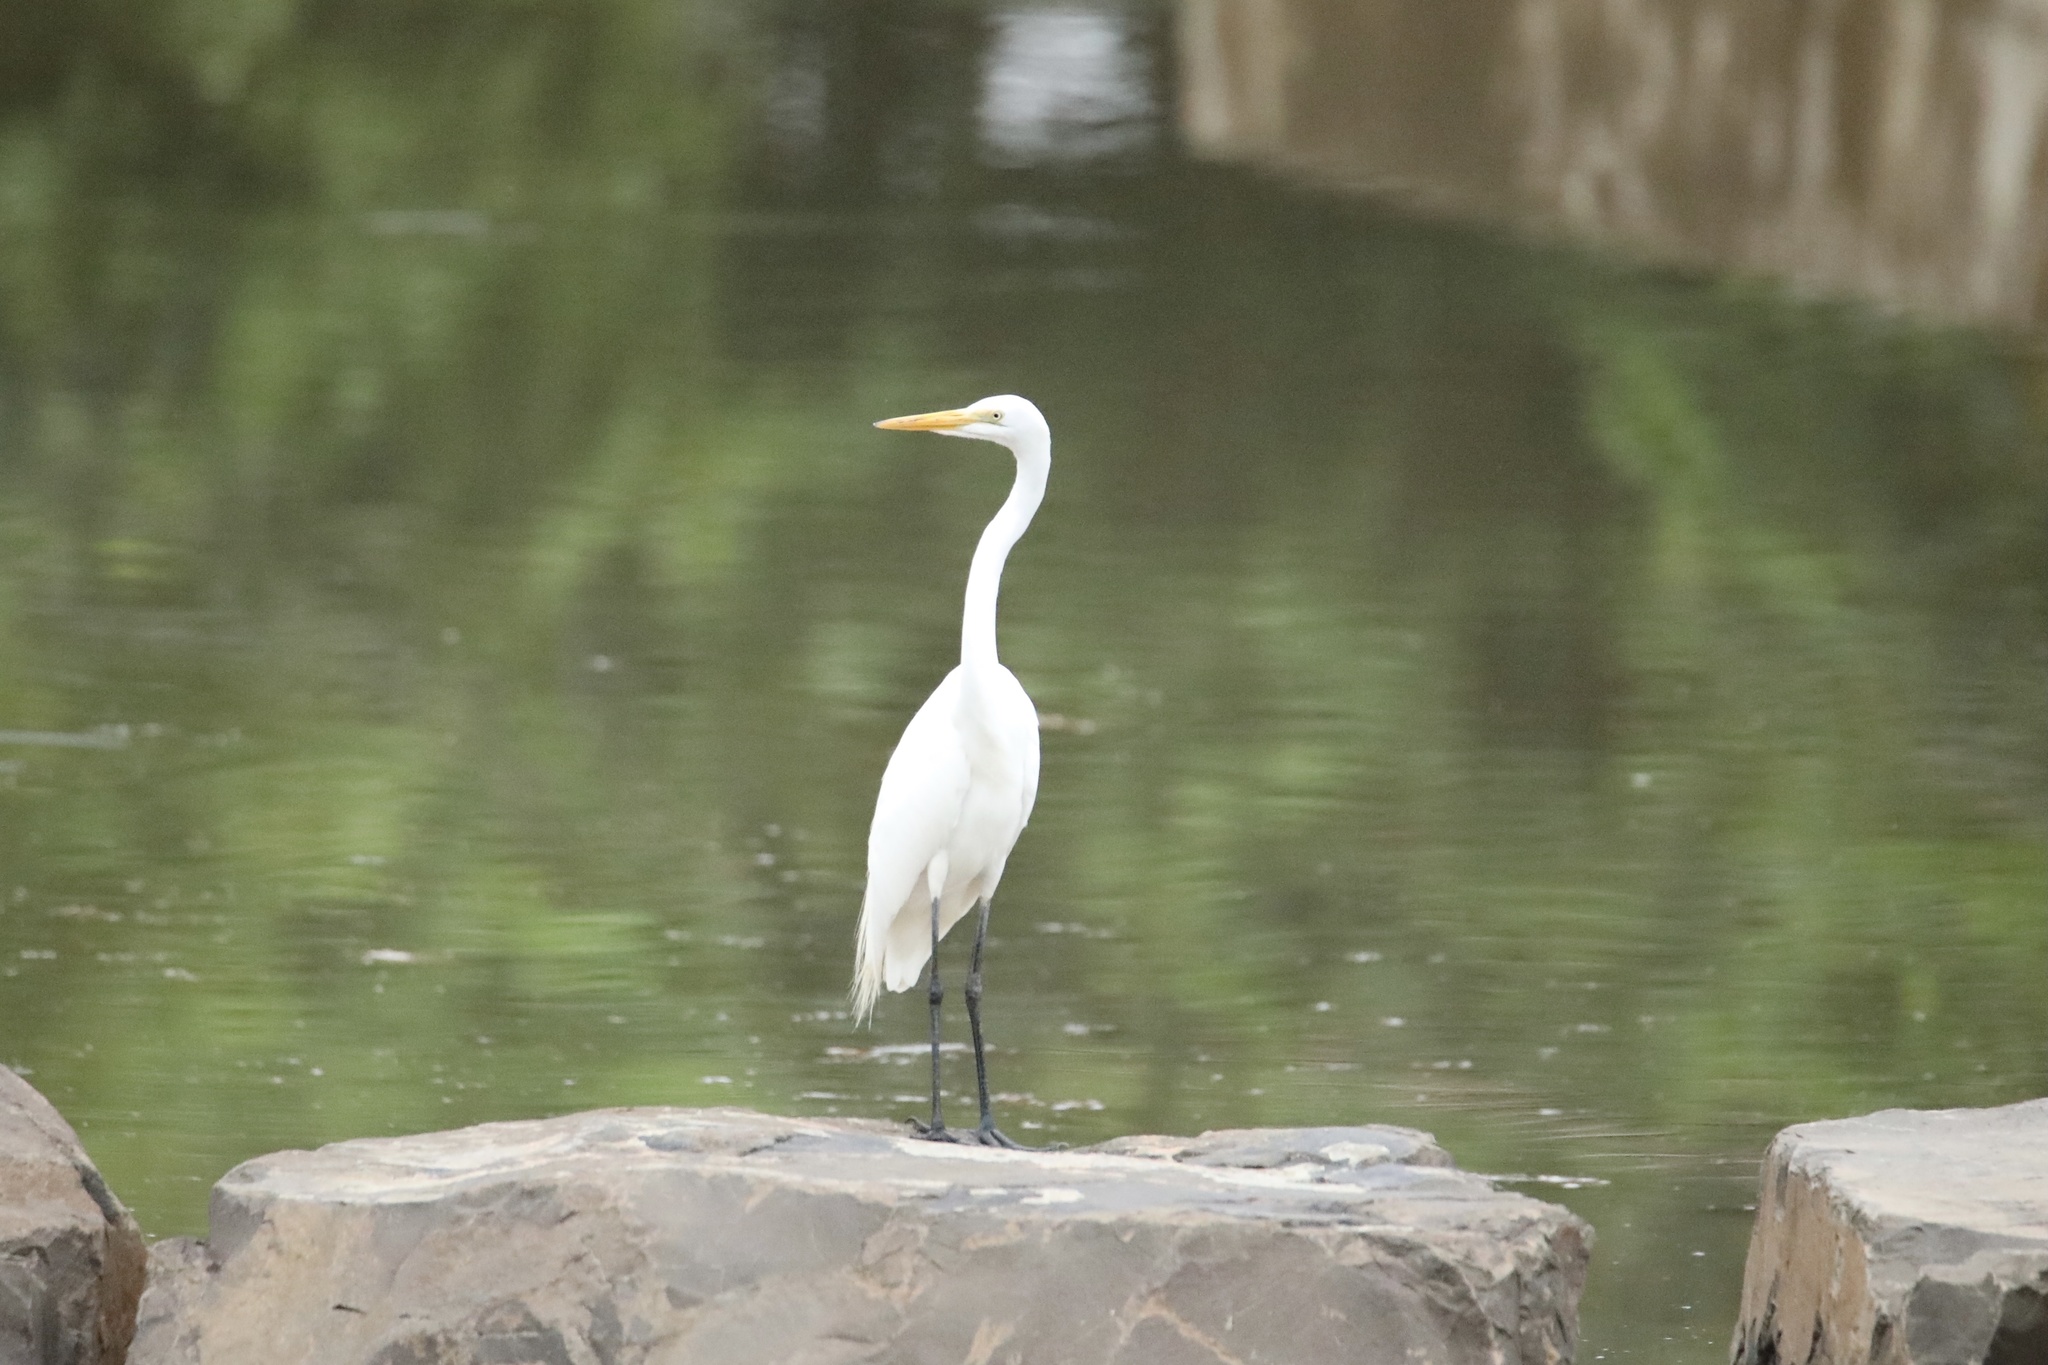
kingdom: Animalia
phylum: Chordata
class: Aves
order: Pelecaniformes
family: Ardeidae
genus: Ardea
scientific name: Ardea alba
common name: Great egret
